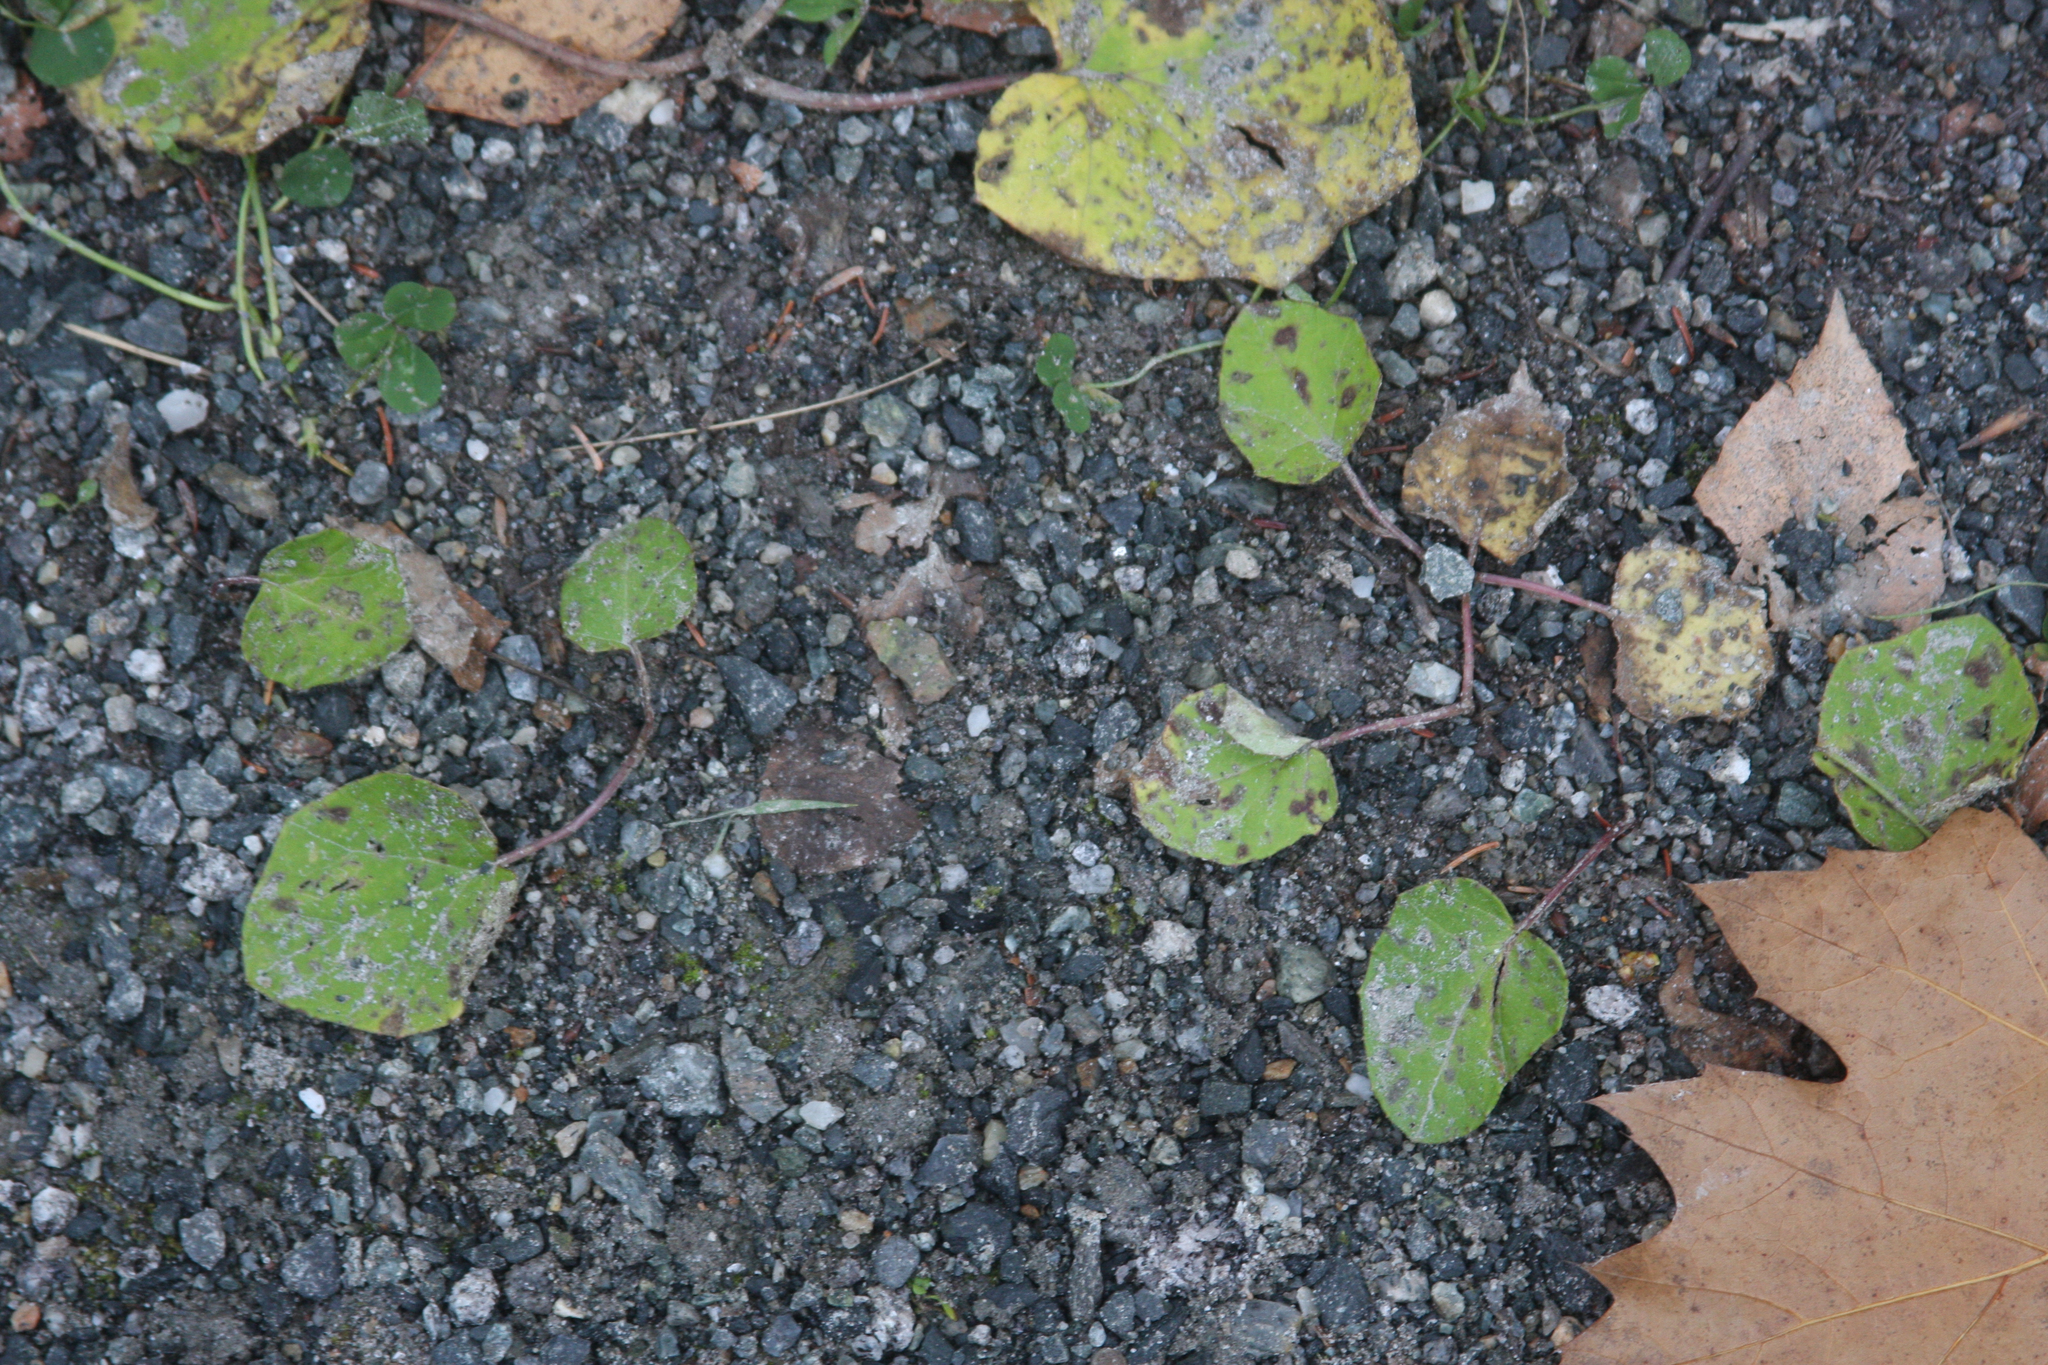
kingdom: Plantae
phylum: Tracheophyta
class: Magnoliopsida
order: Asterales
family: Asteraceae
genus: Tussilago
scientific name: Tussilago farfara
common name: Coltsfoot
